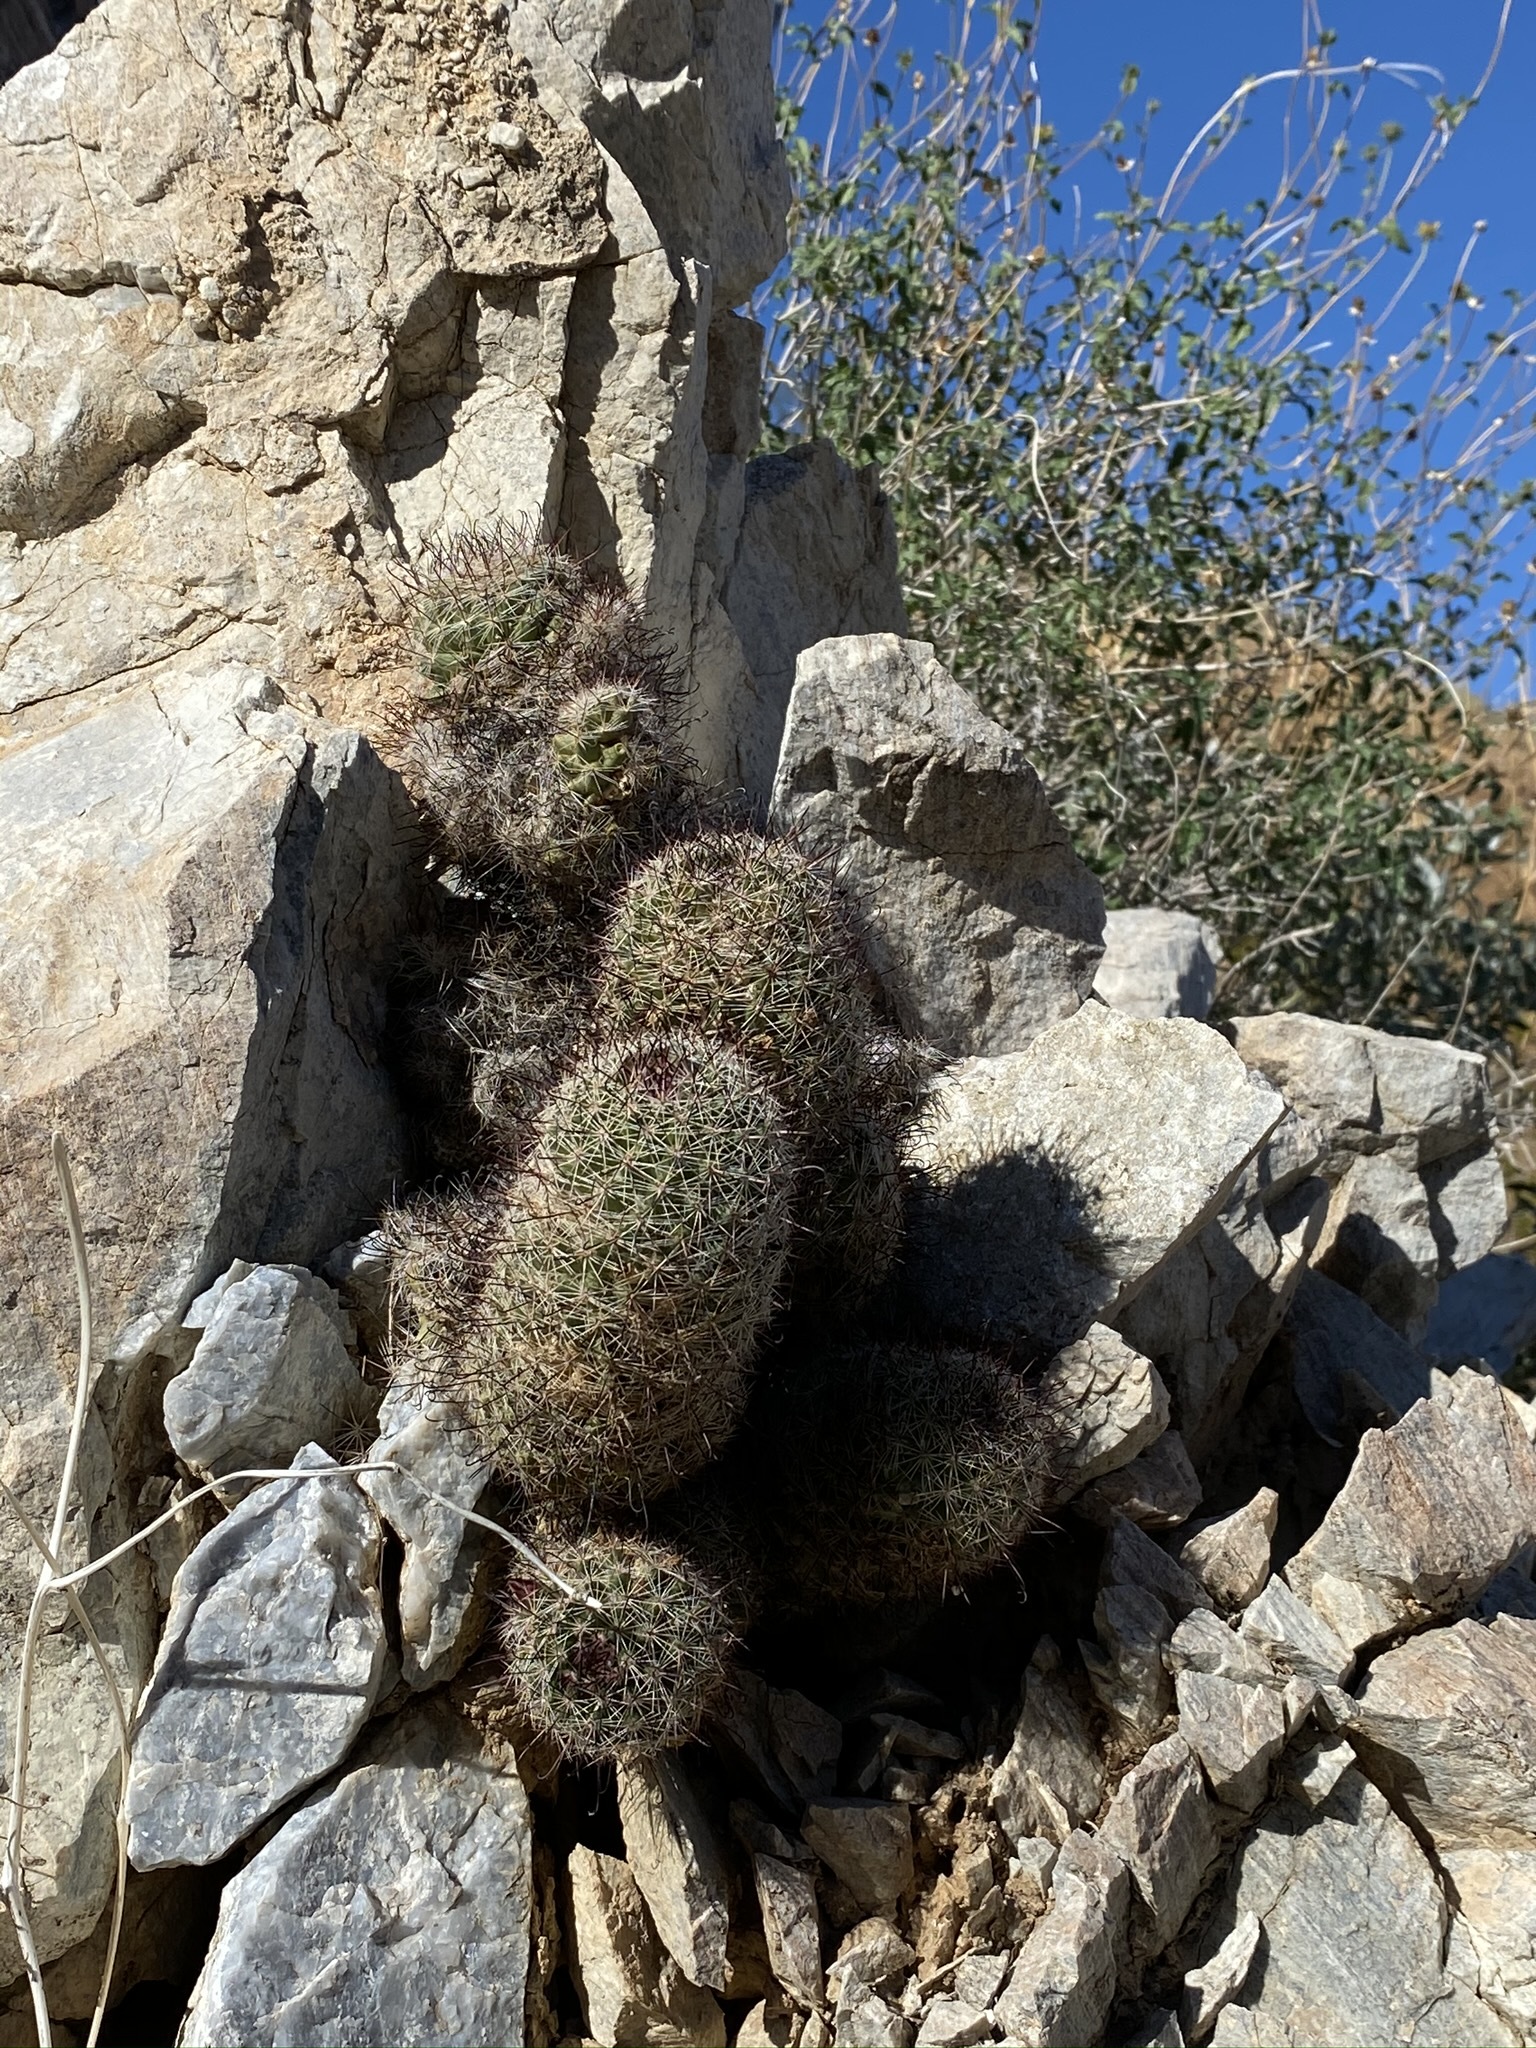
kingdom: Plantae
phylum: Tracheophyta
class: Magnoliopsida
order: Caryophyllales
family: Cactaceae
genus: Cochemiea
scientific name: Cochemiea dioica
